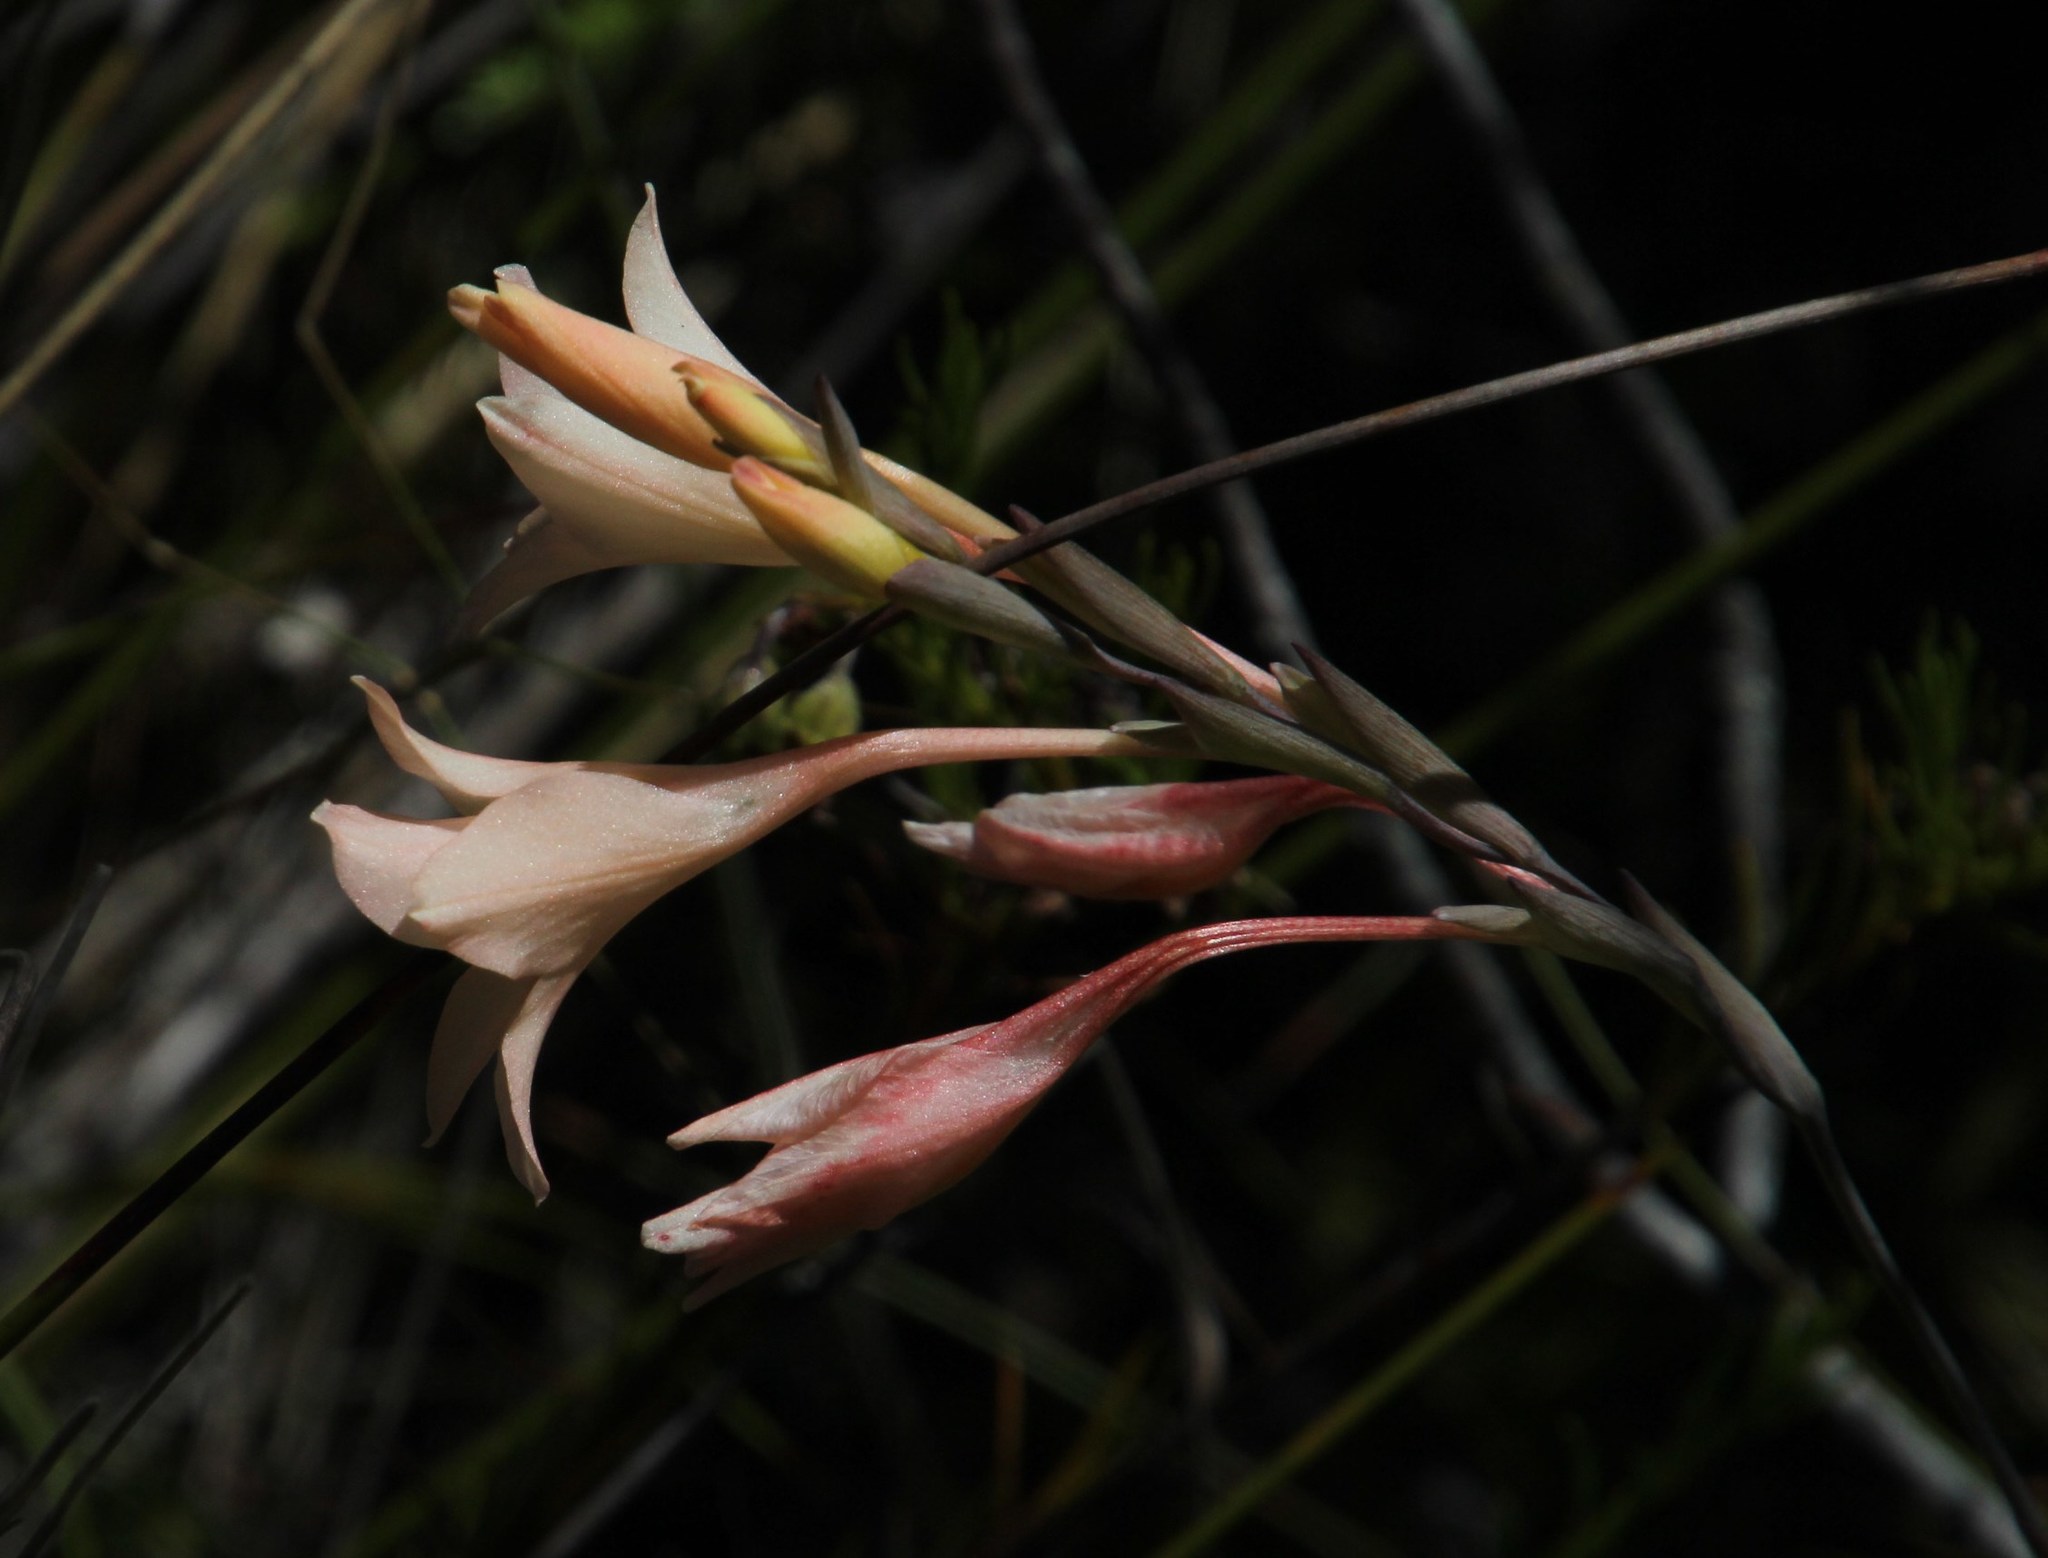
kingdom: Plantae
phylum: Tracheophyta
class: Liliopsida
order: Asparagales
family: Iridaceae
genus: Gladiolus
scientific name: Gladiolus monticola
